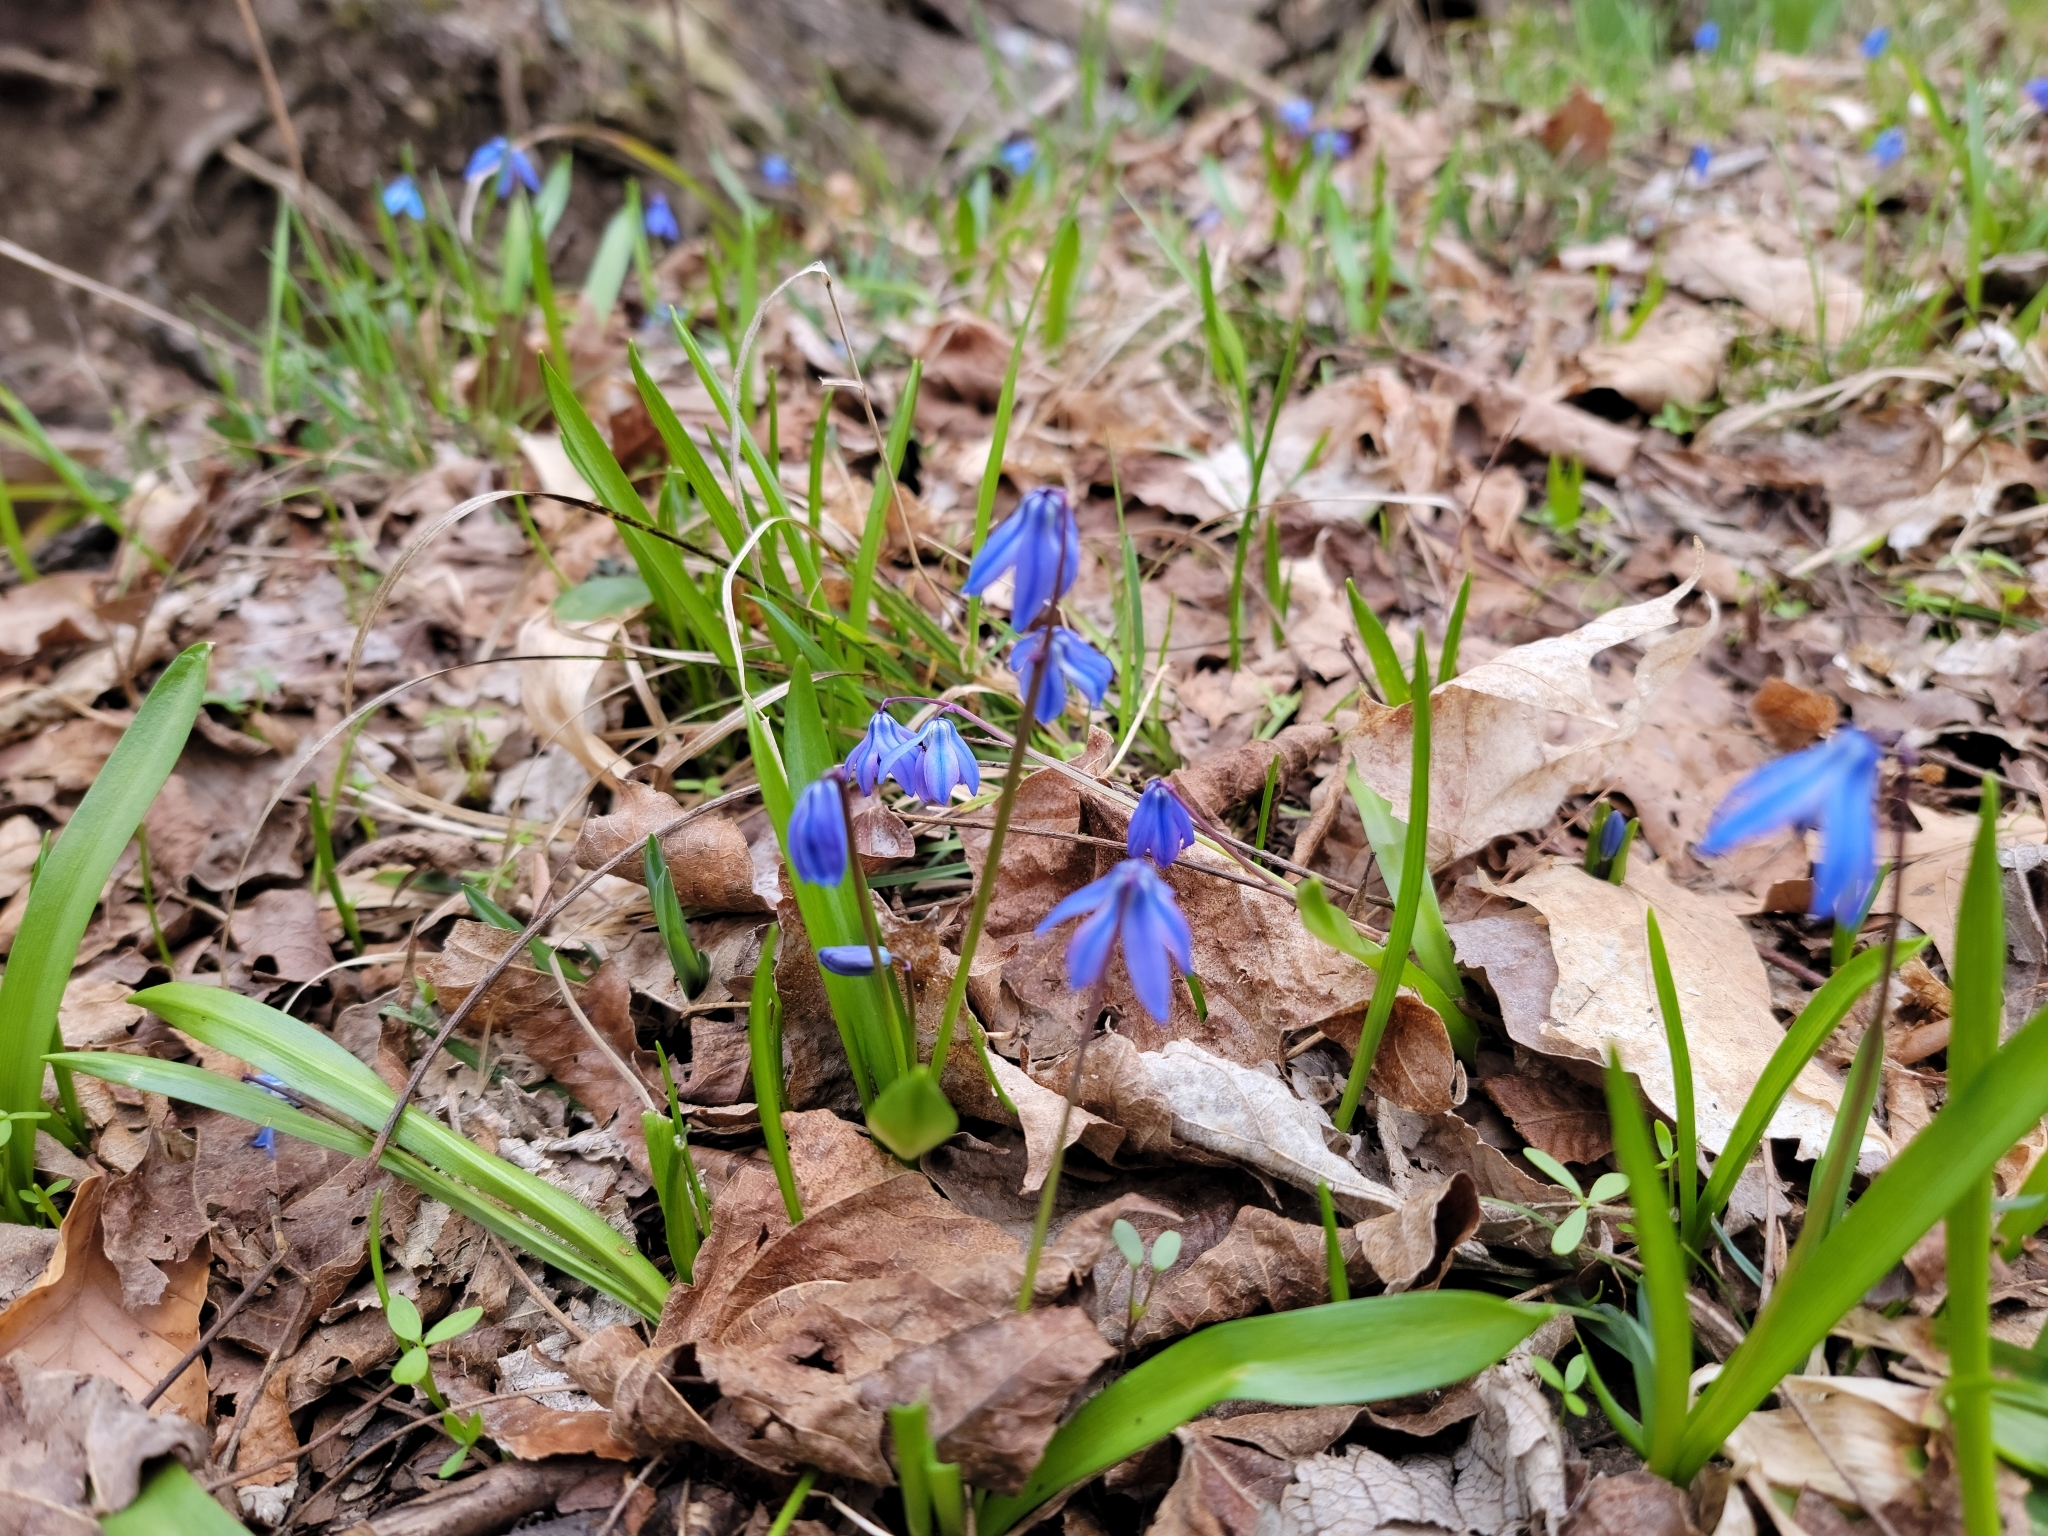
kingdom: Plantae
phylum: Tracheophyta
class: Liliopsida
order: Asparagales
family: Asparagaceae
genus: Scilla
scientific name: Scilla siberica
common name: Siberian squill
